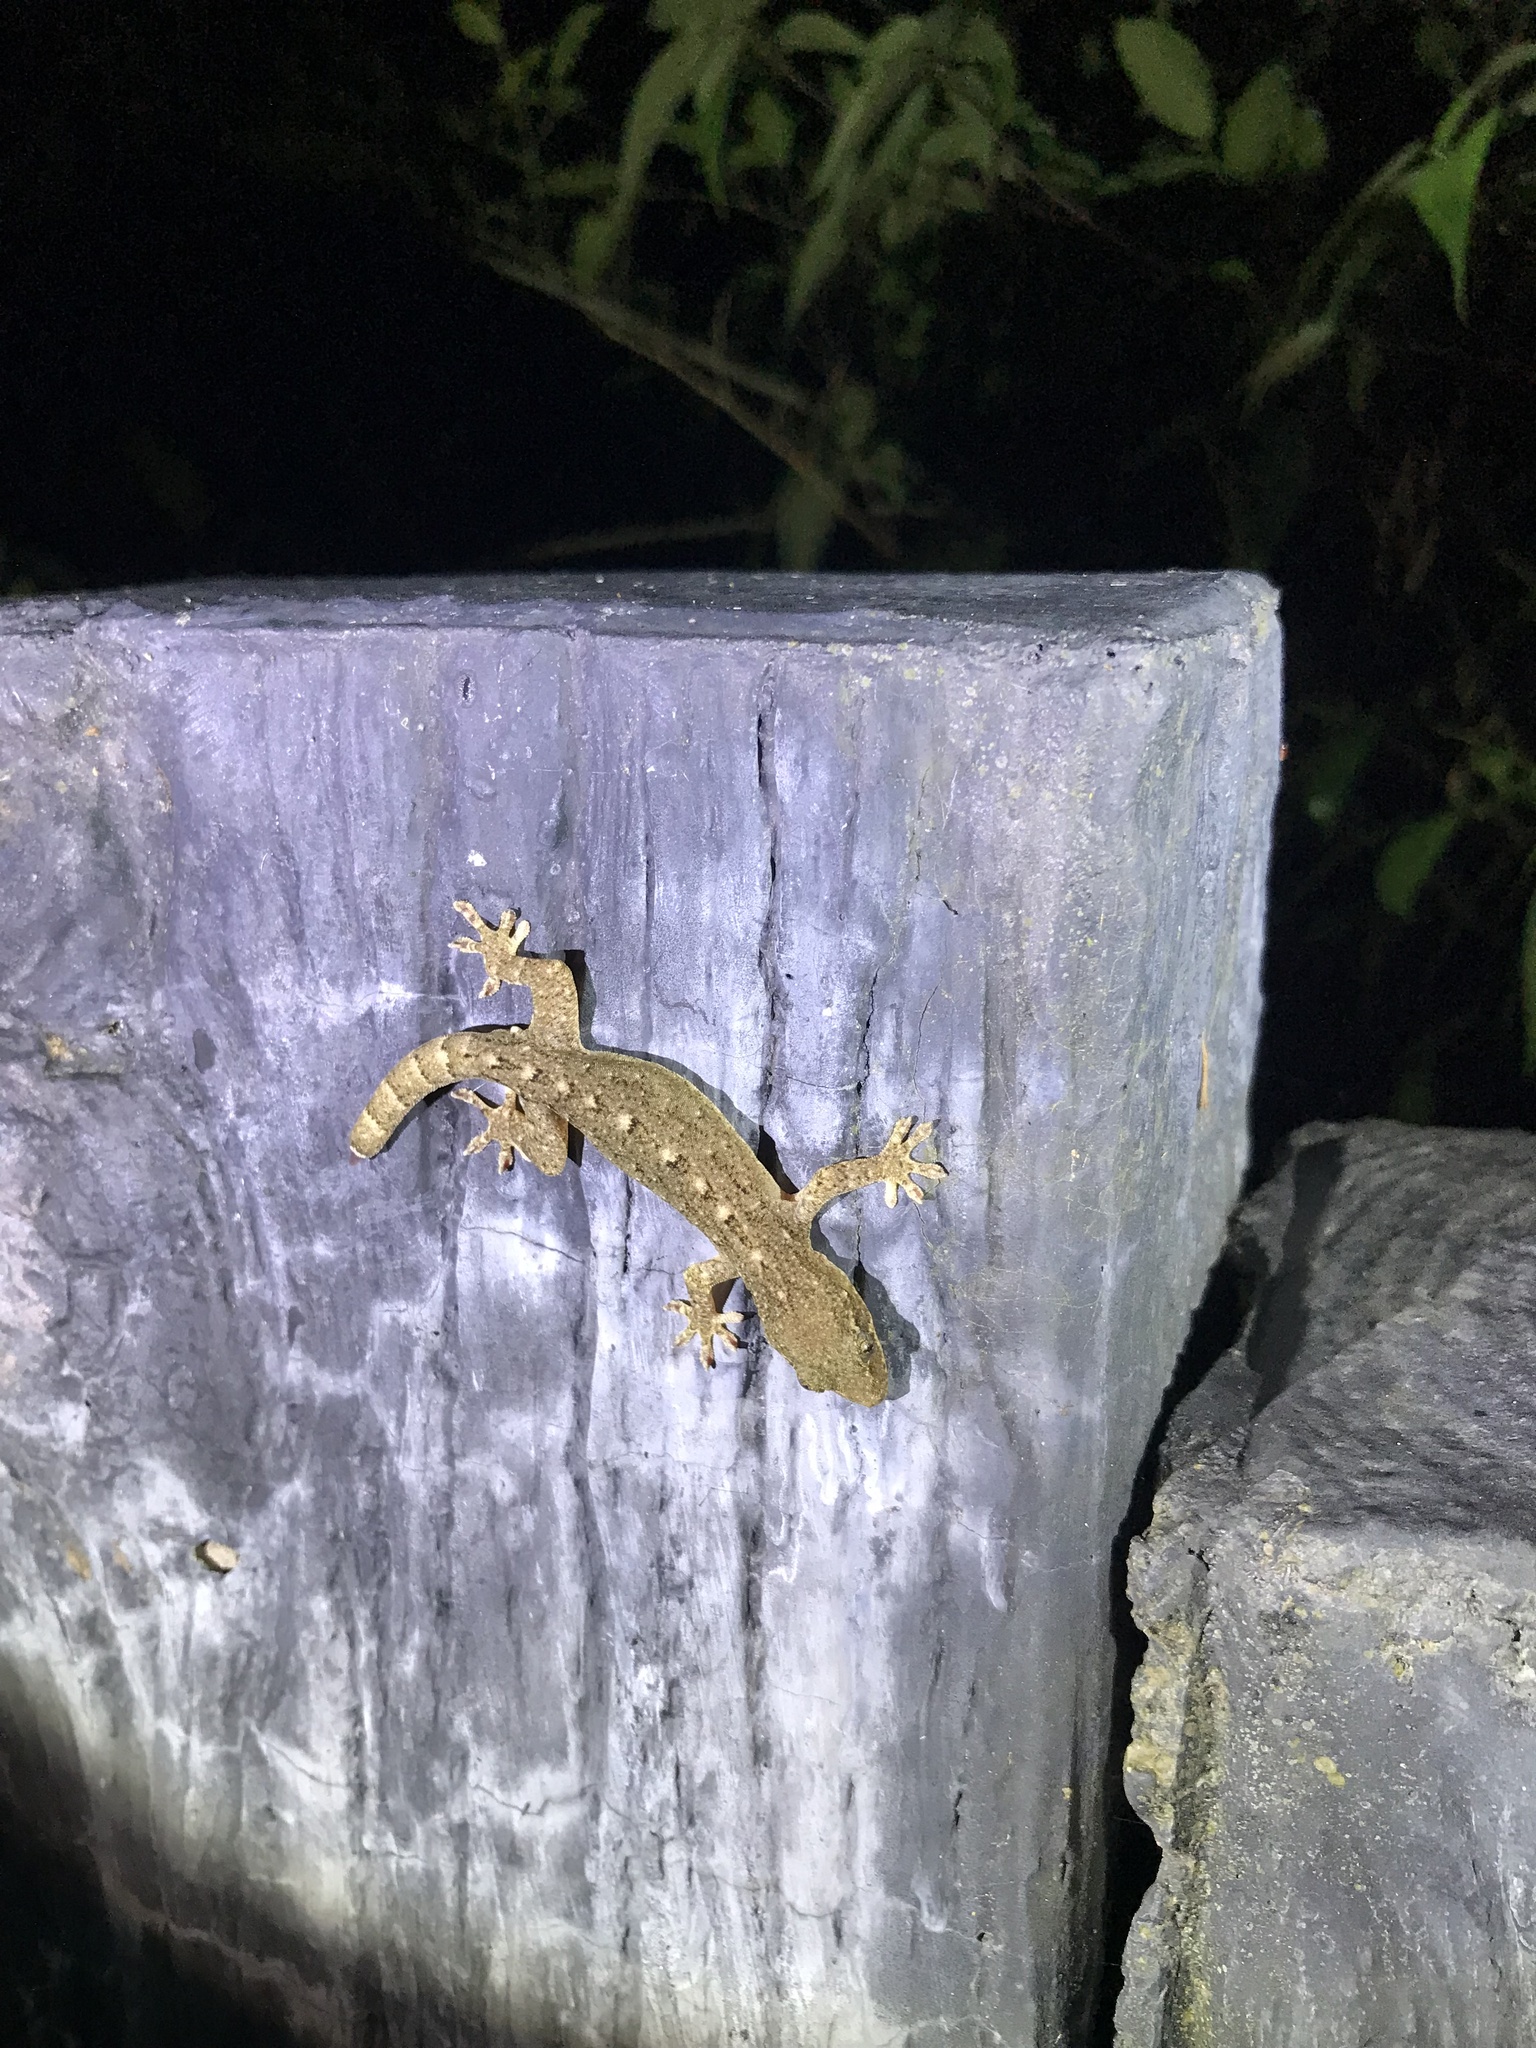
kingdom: Animalia
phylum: Chordata
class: Squamata
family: Gekkonidae
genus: Gekko
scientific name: Gekko hokouensis
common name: Kwangsi gecko
